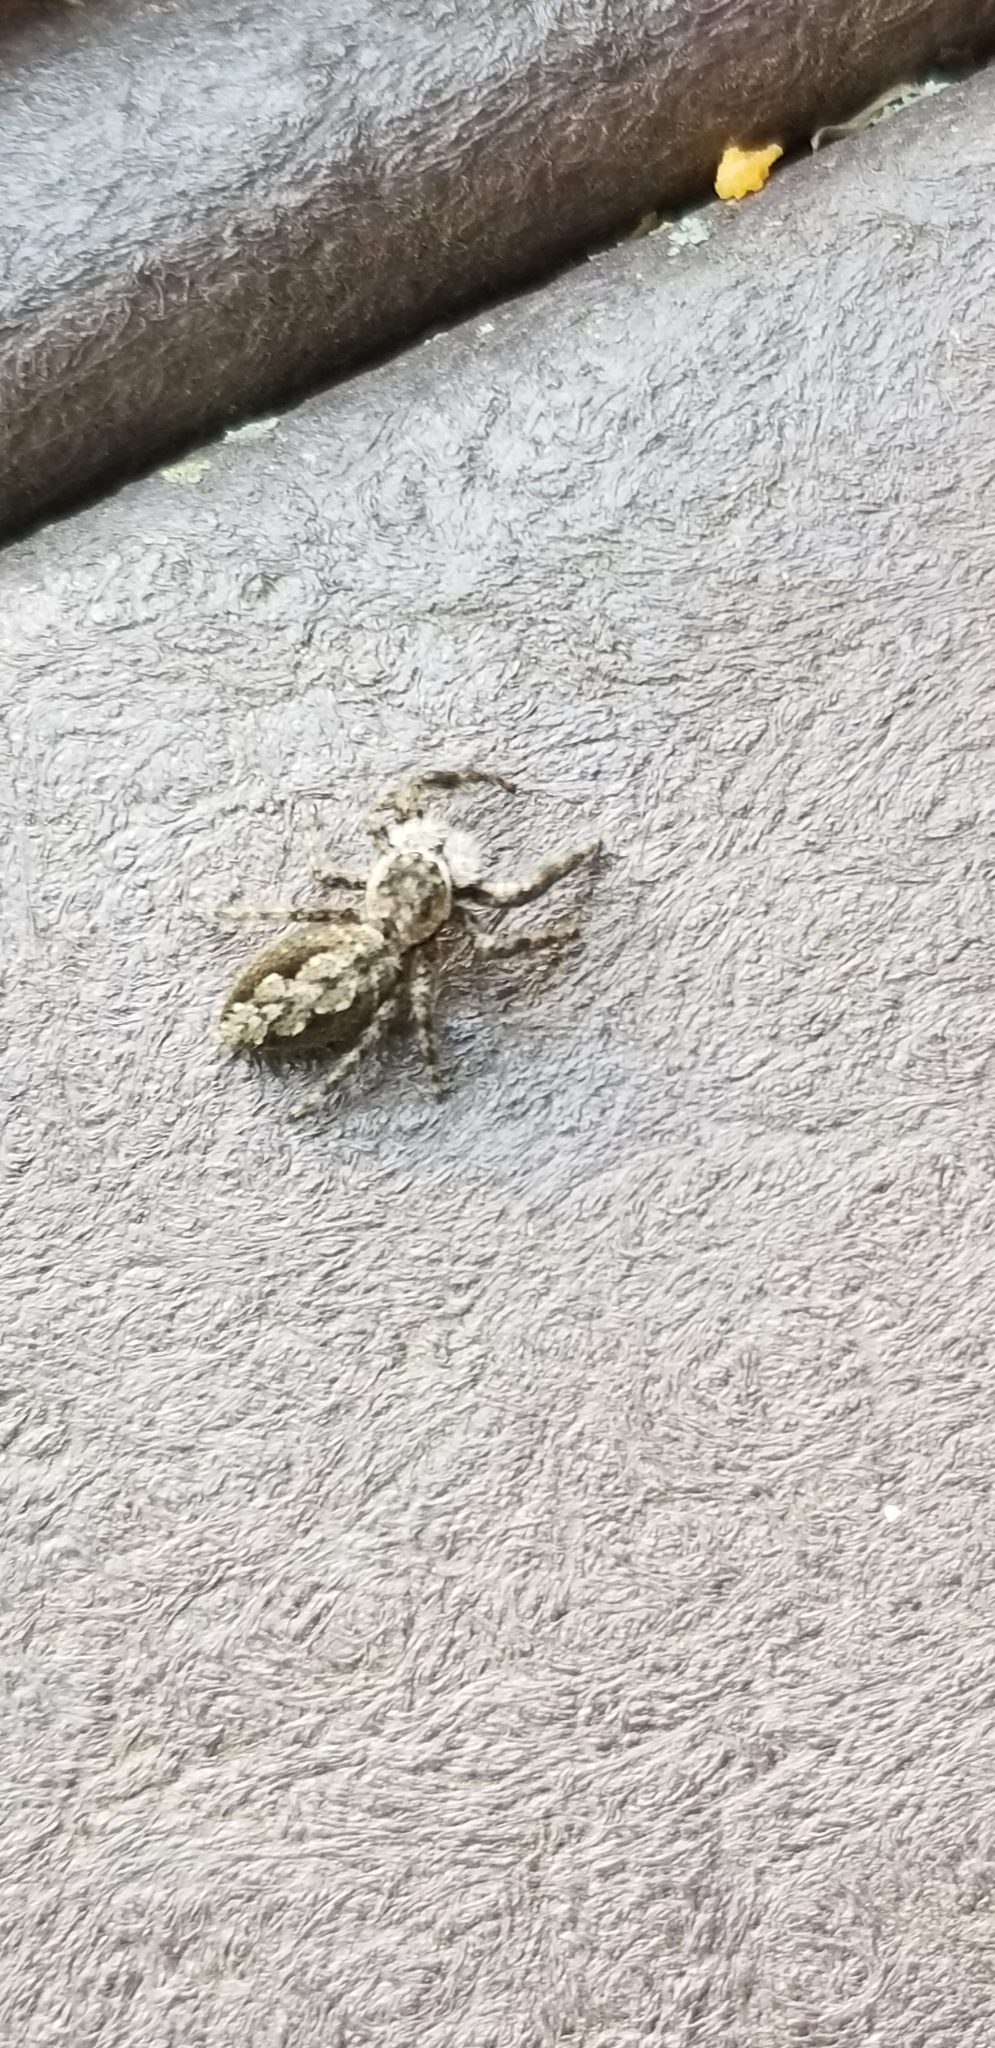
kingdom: Animalia
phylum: Arthropoda
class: Arachnida
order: Araneae
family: Salticidae
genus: Platycryptus
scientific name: Platycryptus undatus
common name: Tan jumping spider
